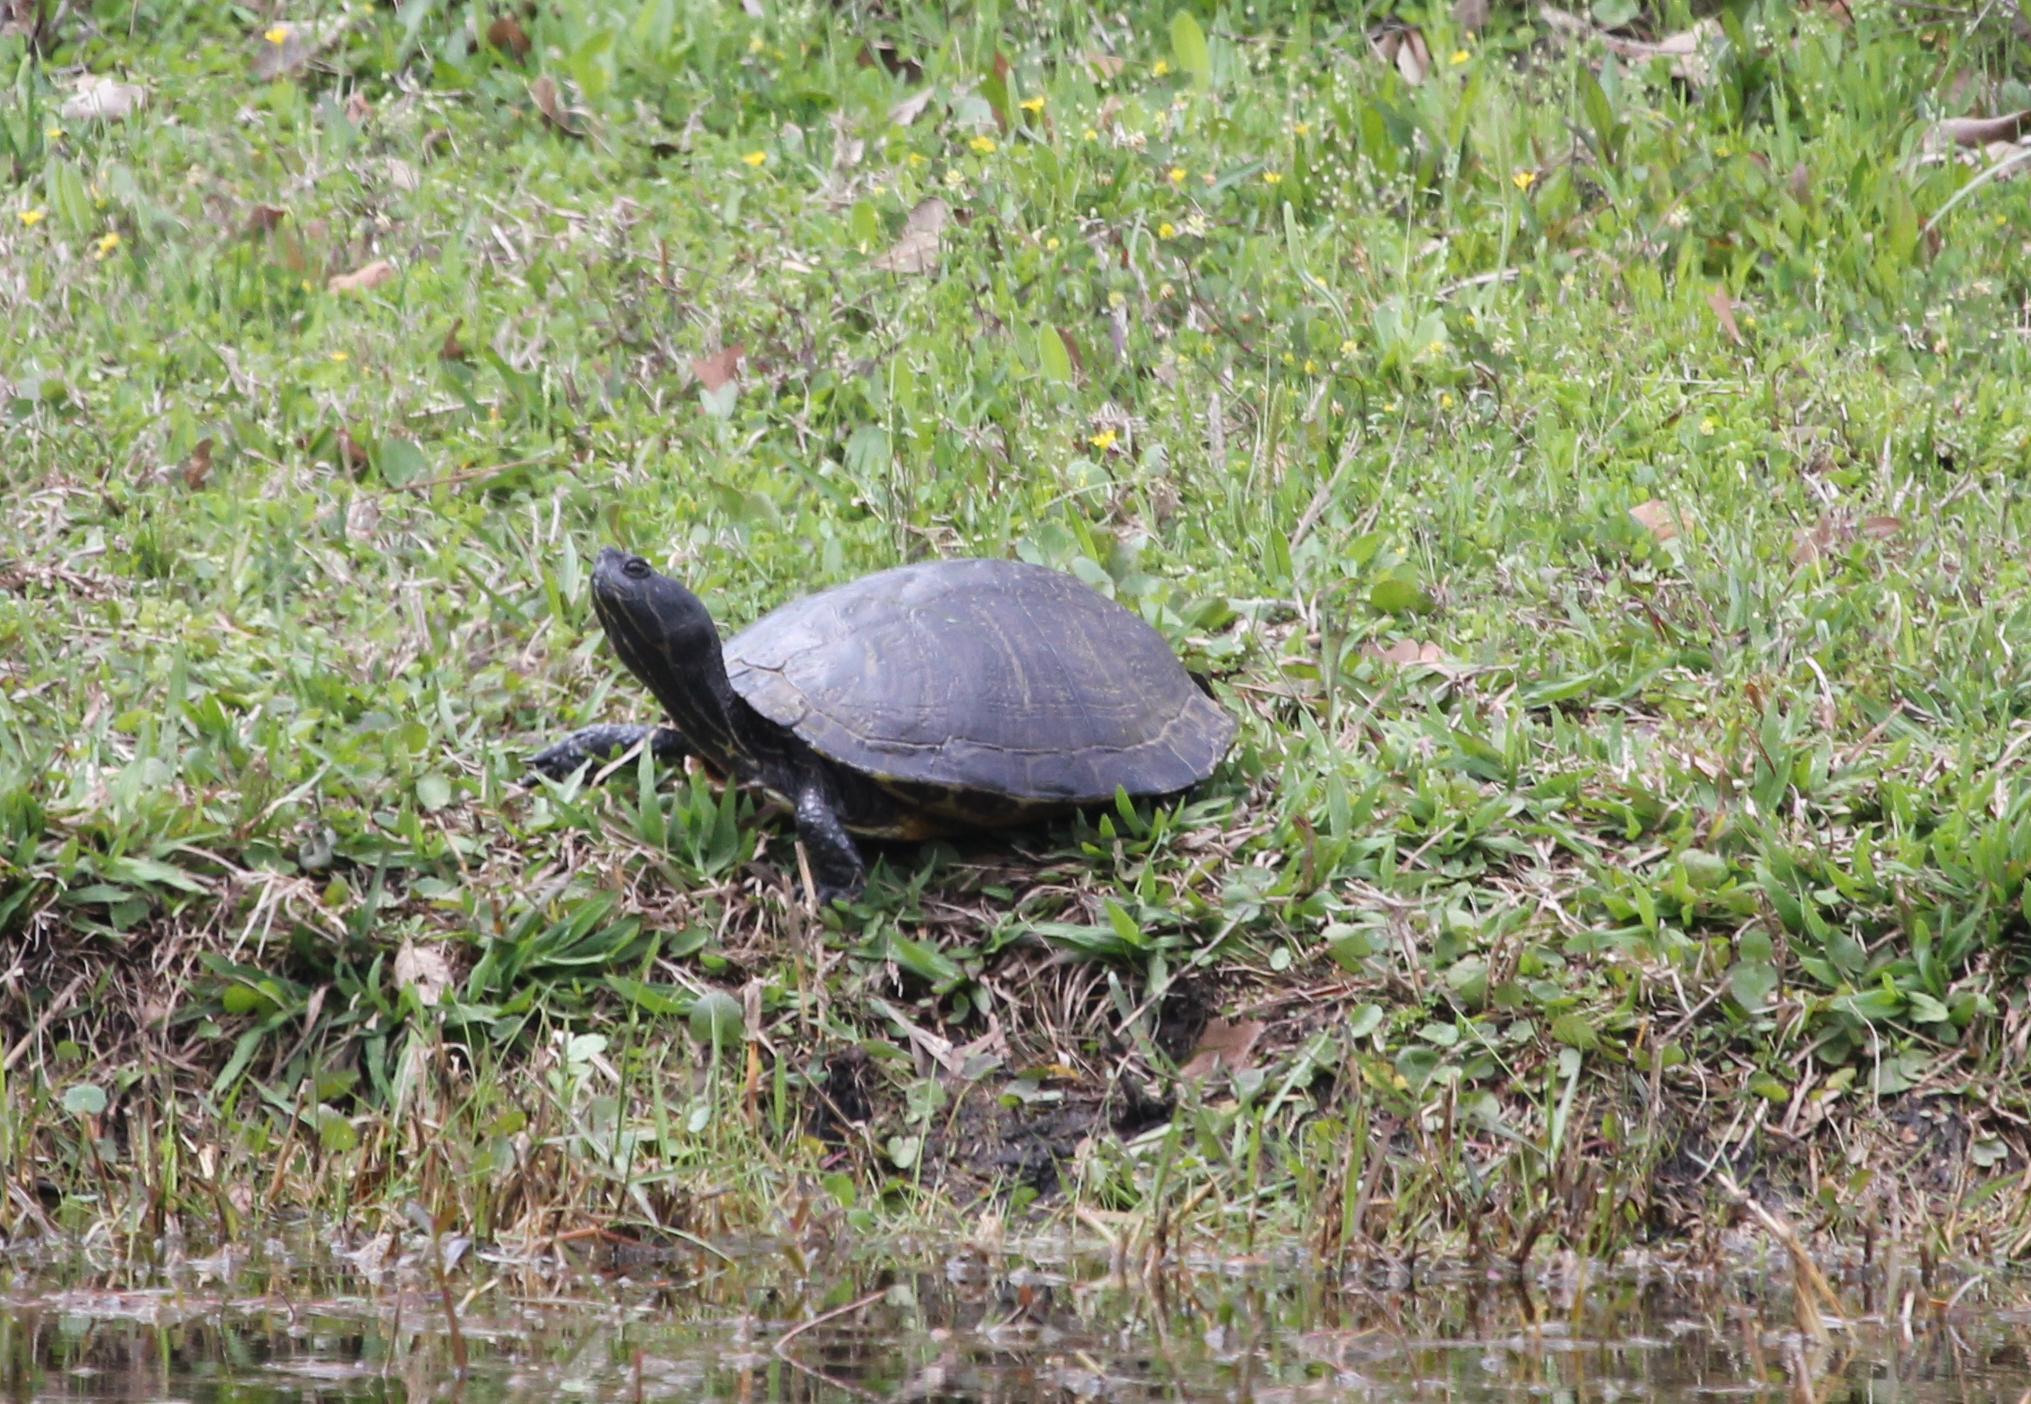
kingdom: Animalia
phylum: Chordata
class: Testudines
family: Emydidae
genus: Trachemys
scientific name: Trachemys scripta
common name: Slider
